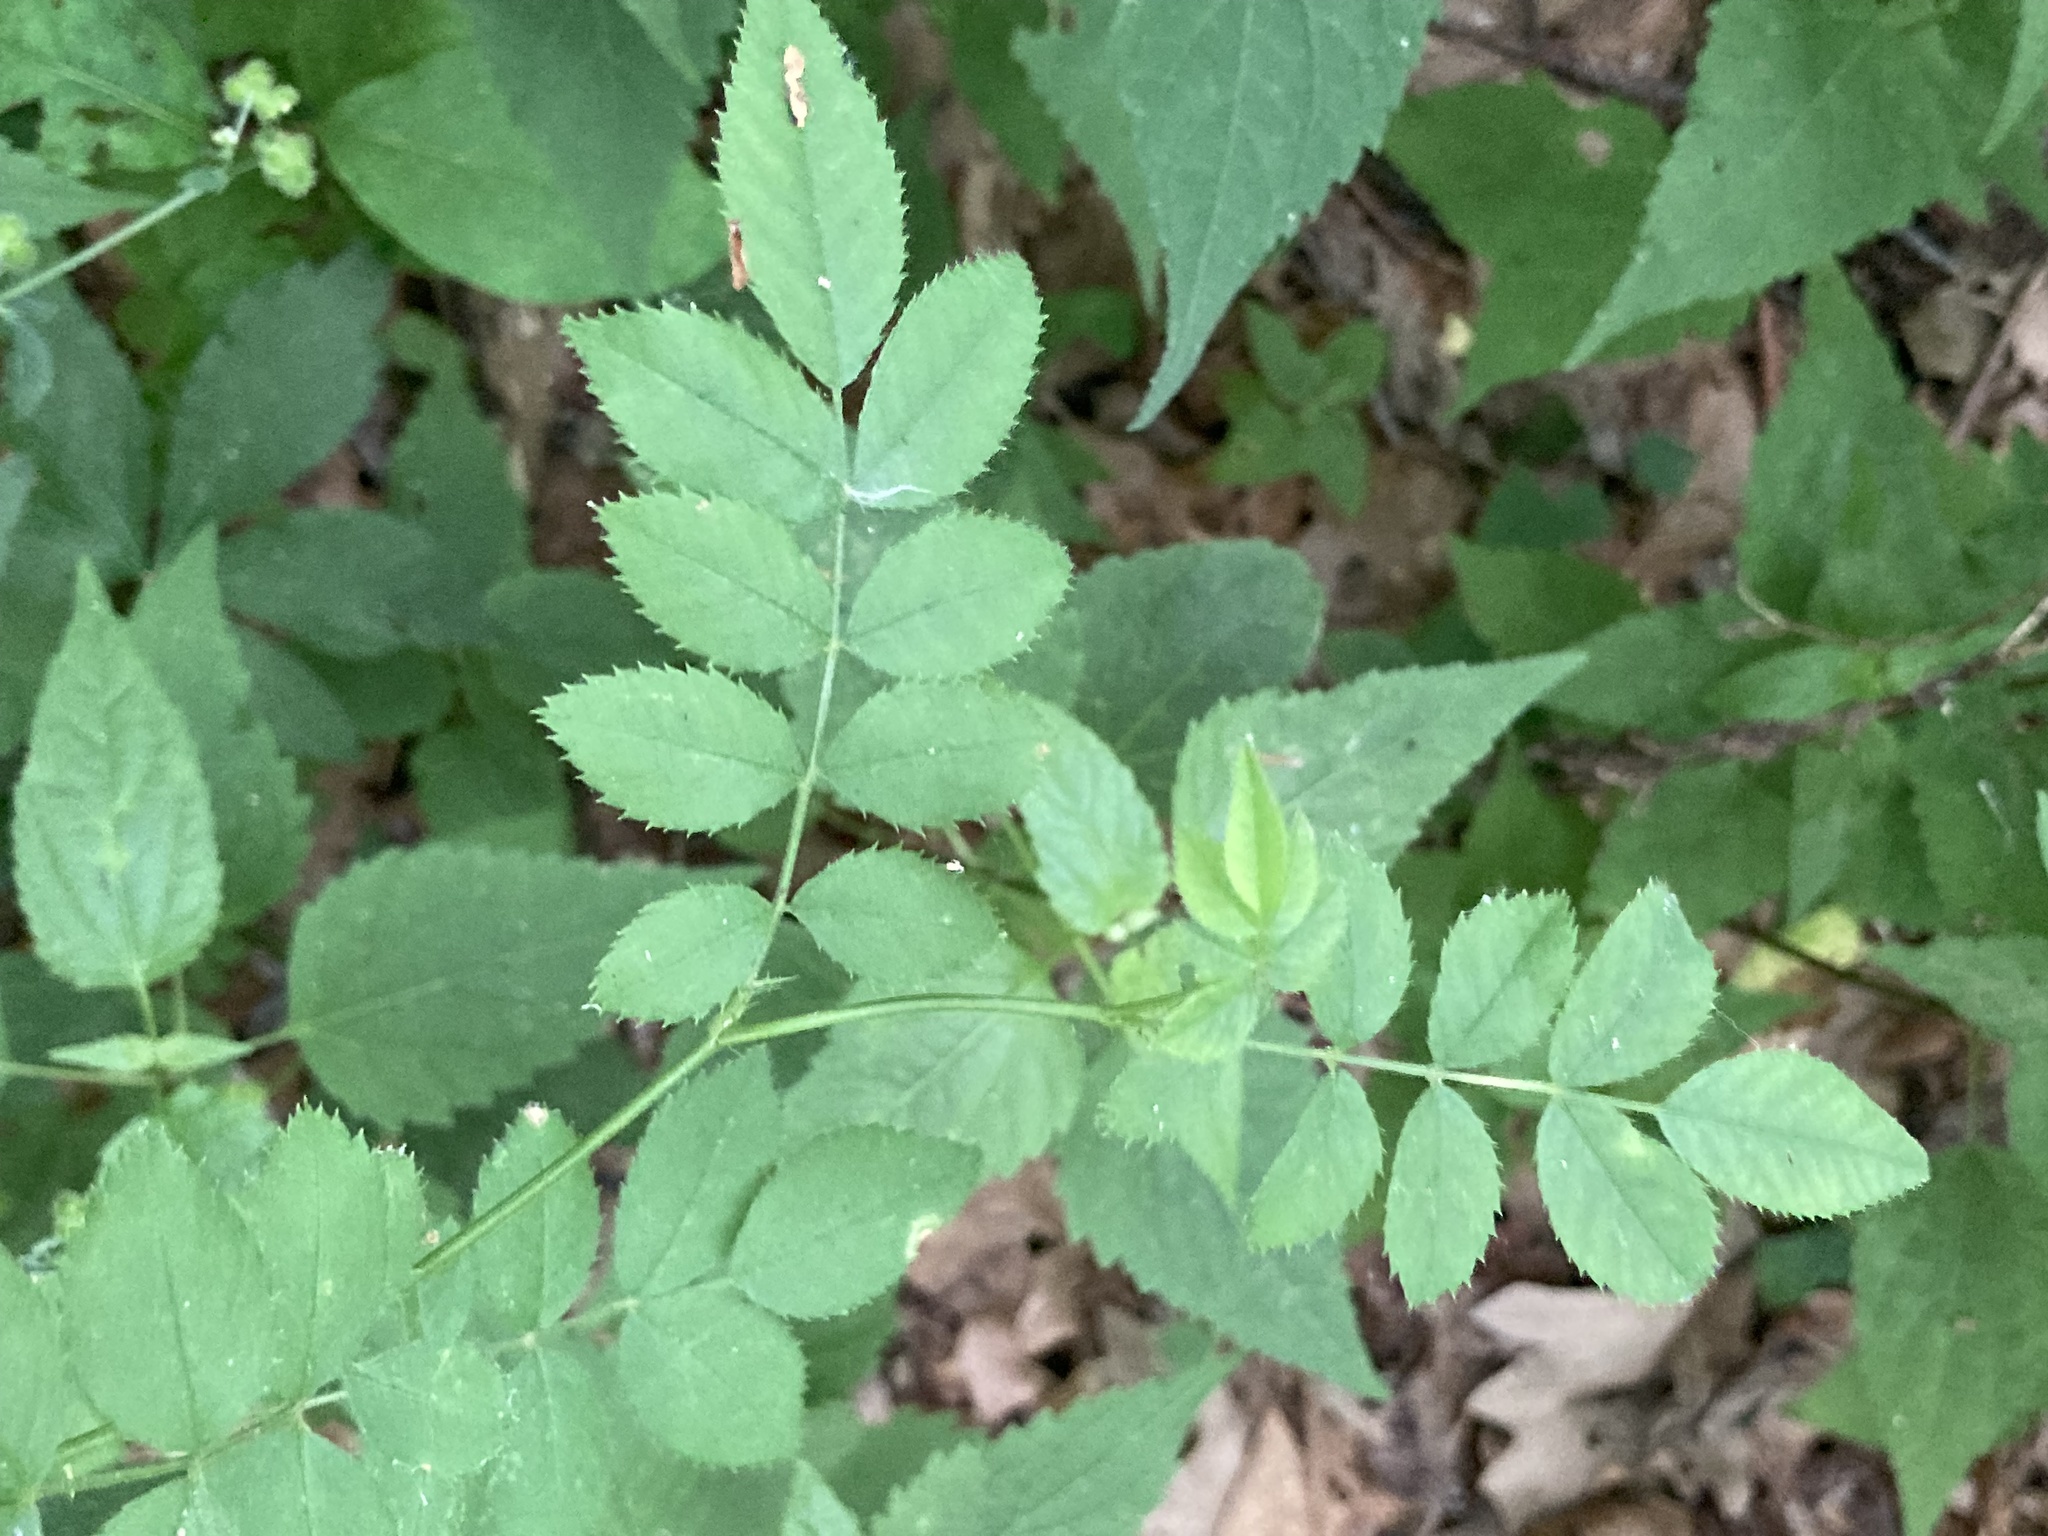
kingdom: Plantae
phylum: Tracheophyta
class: Magnoliopsida
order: Rosales
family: Rosaceae
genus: Rosa
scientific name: Rosa multiflora
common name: Multiflora rose
